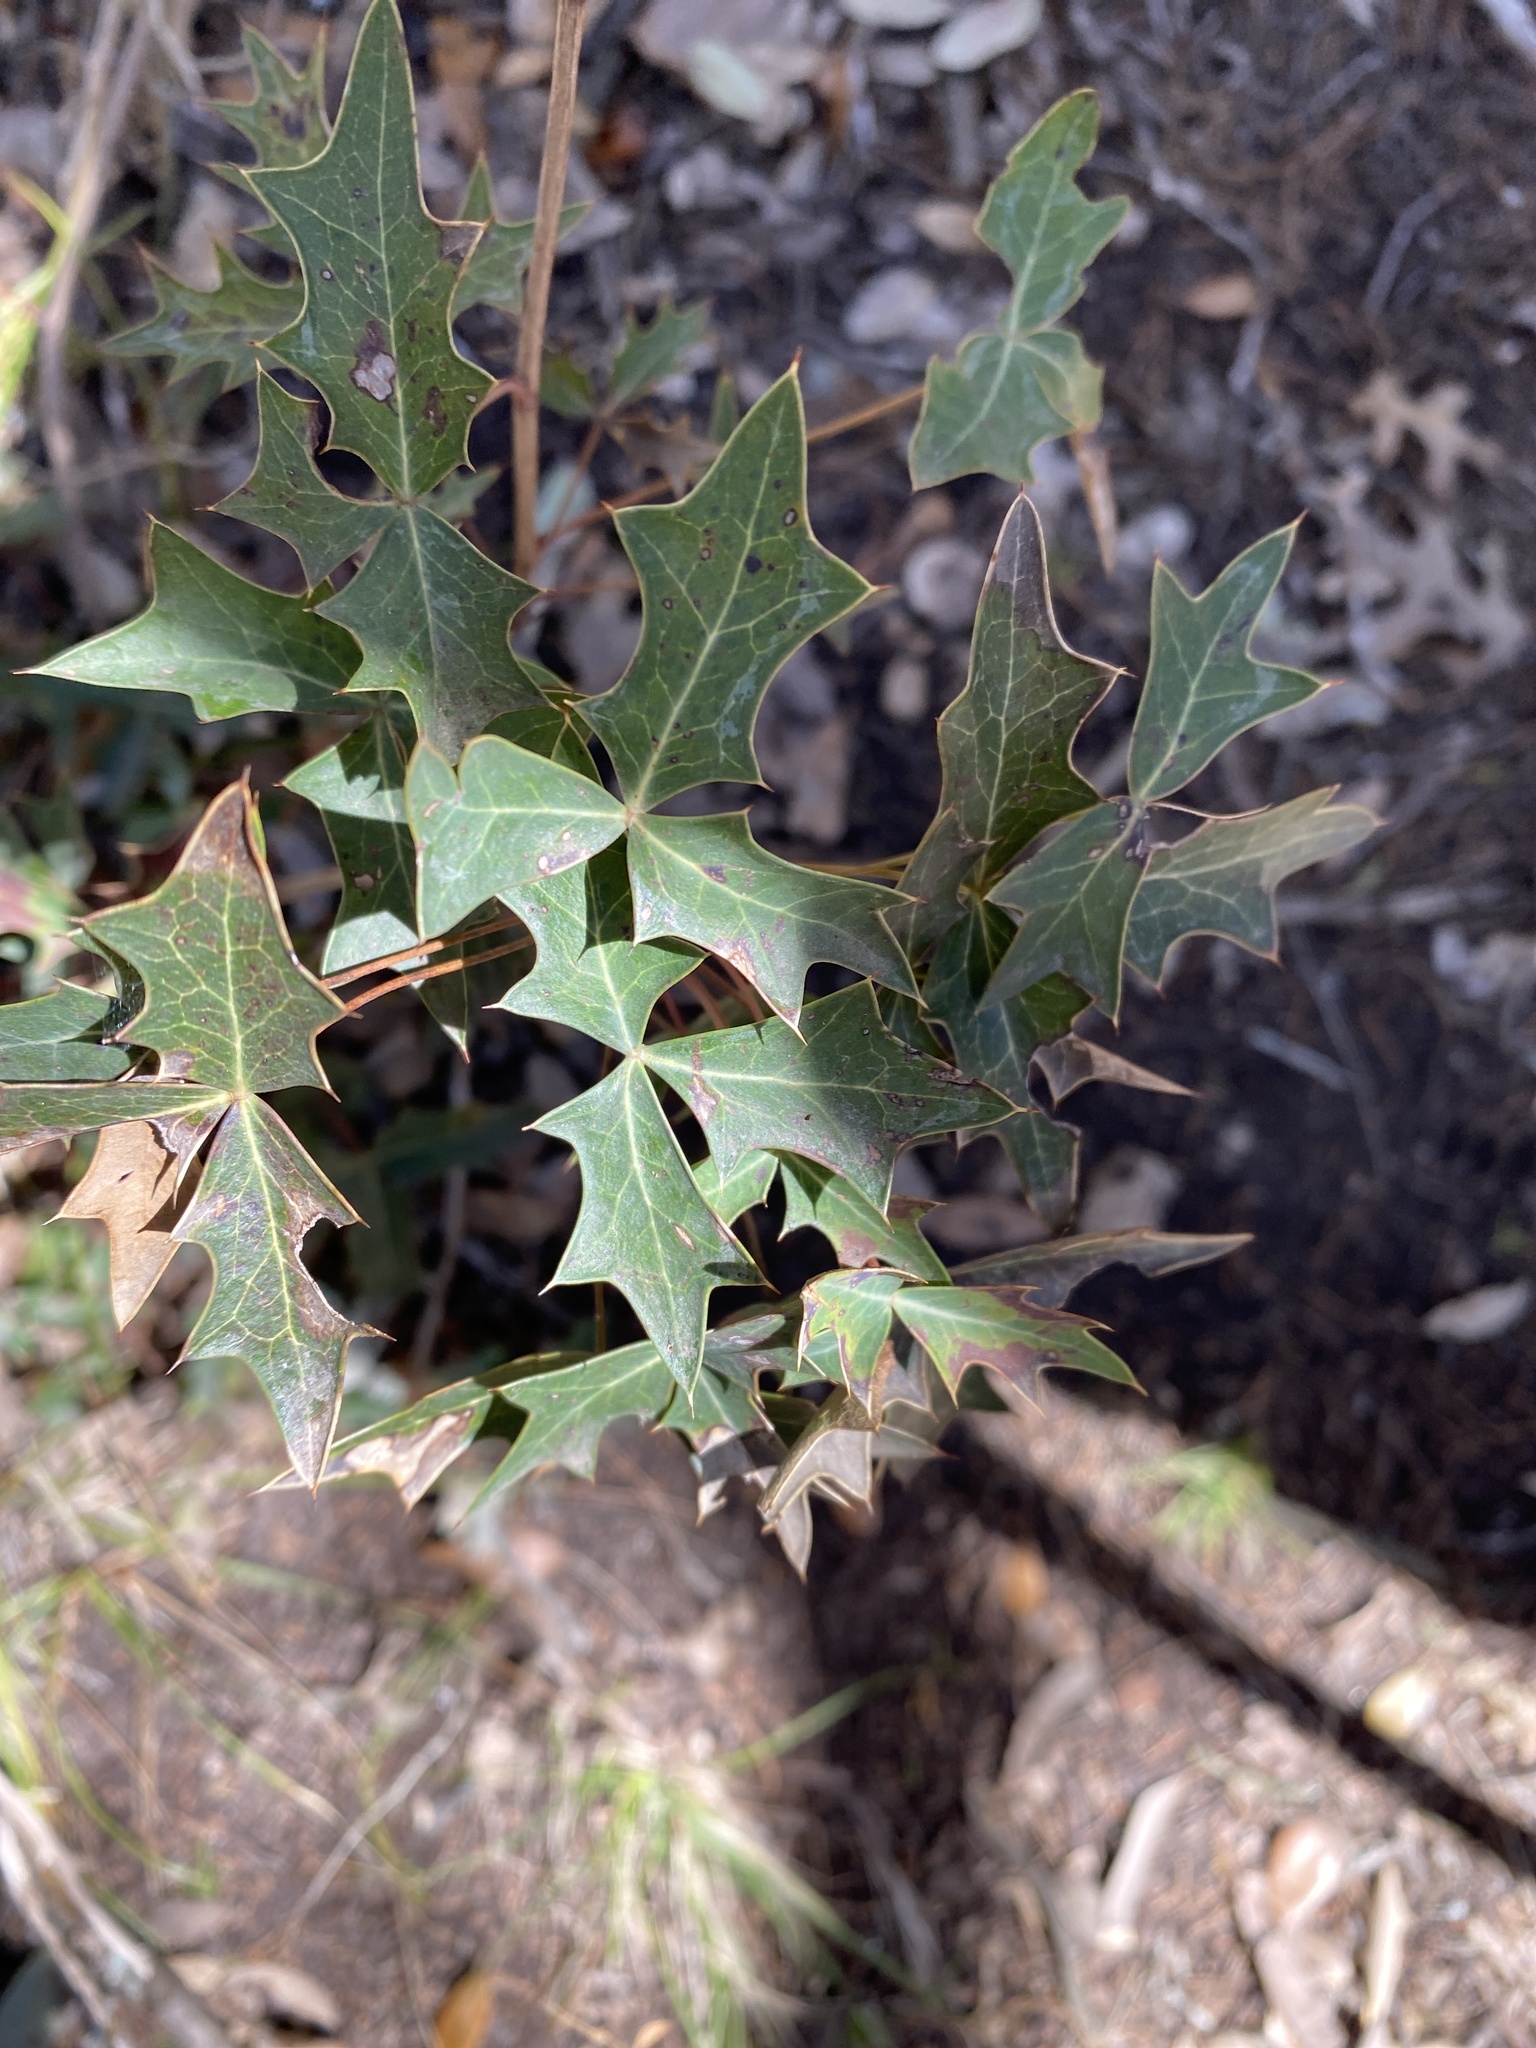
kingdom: Plantae
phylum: Tracheophyta
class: Magnoliopsida
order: Ranunculales
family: Berberidaceae
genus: Alloberberis
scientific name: Alloberberis trifoliolata
